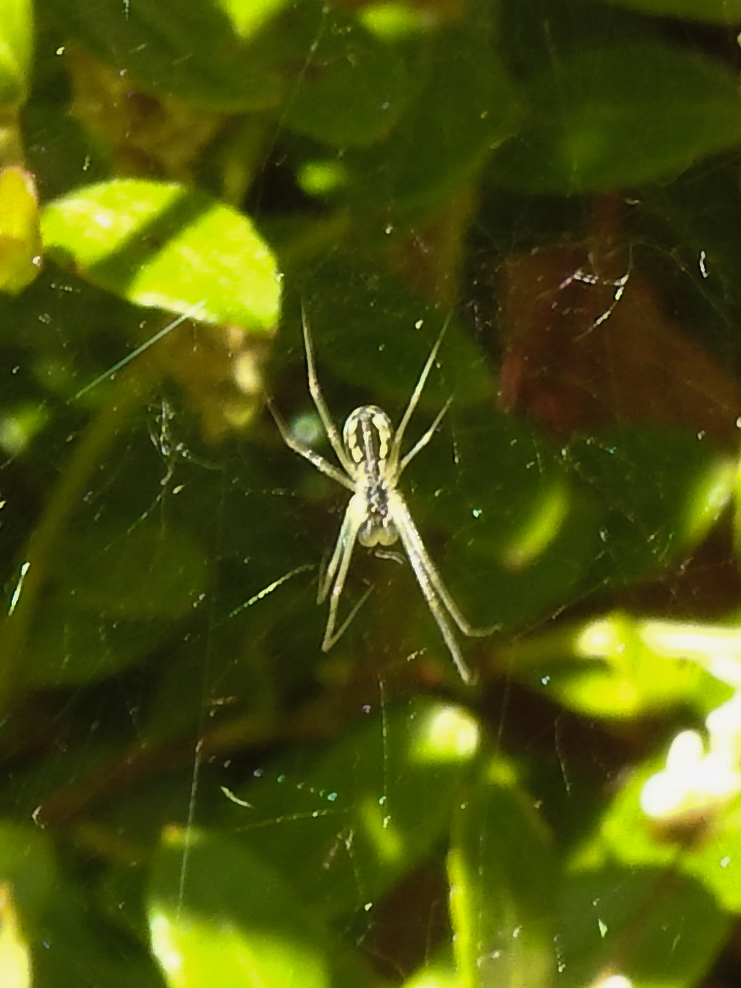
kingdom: Animalia
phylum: Arthropoda
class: Arachnida
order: Araneae
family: Linyphiidae
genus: Neriene
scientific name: Neriene radiata
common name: Filmy dome spider
